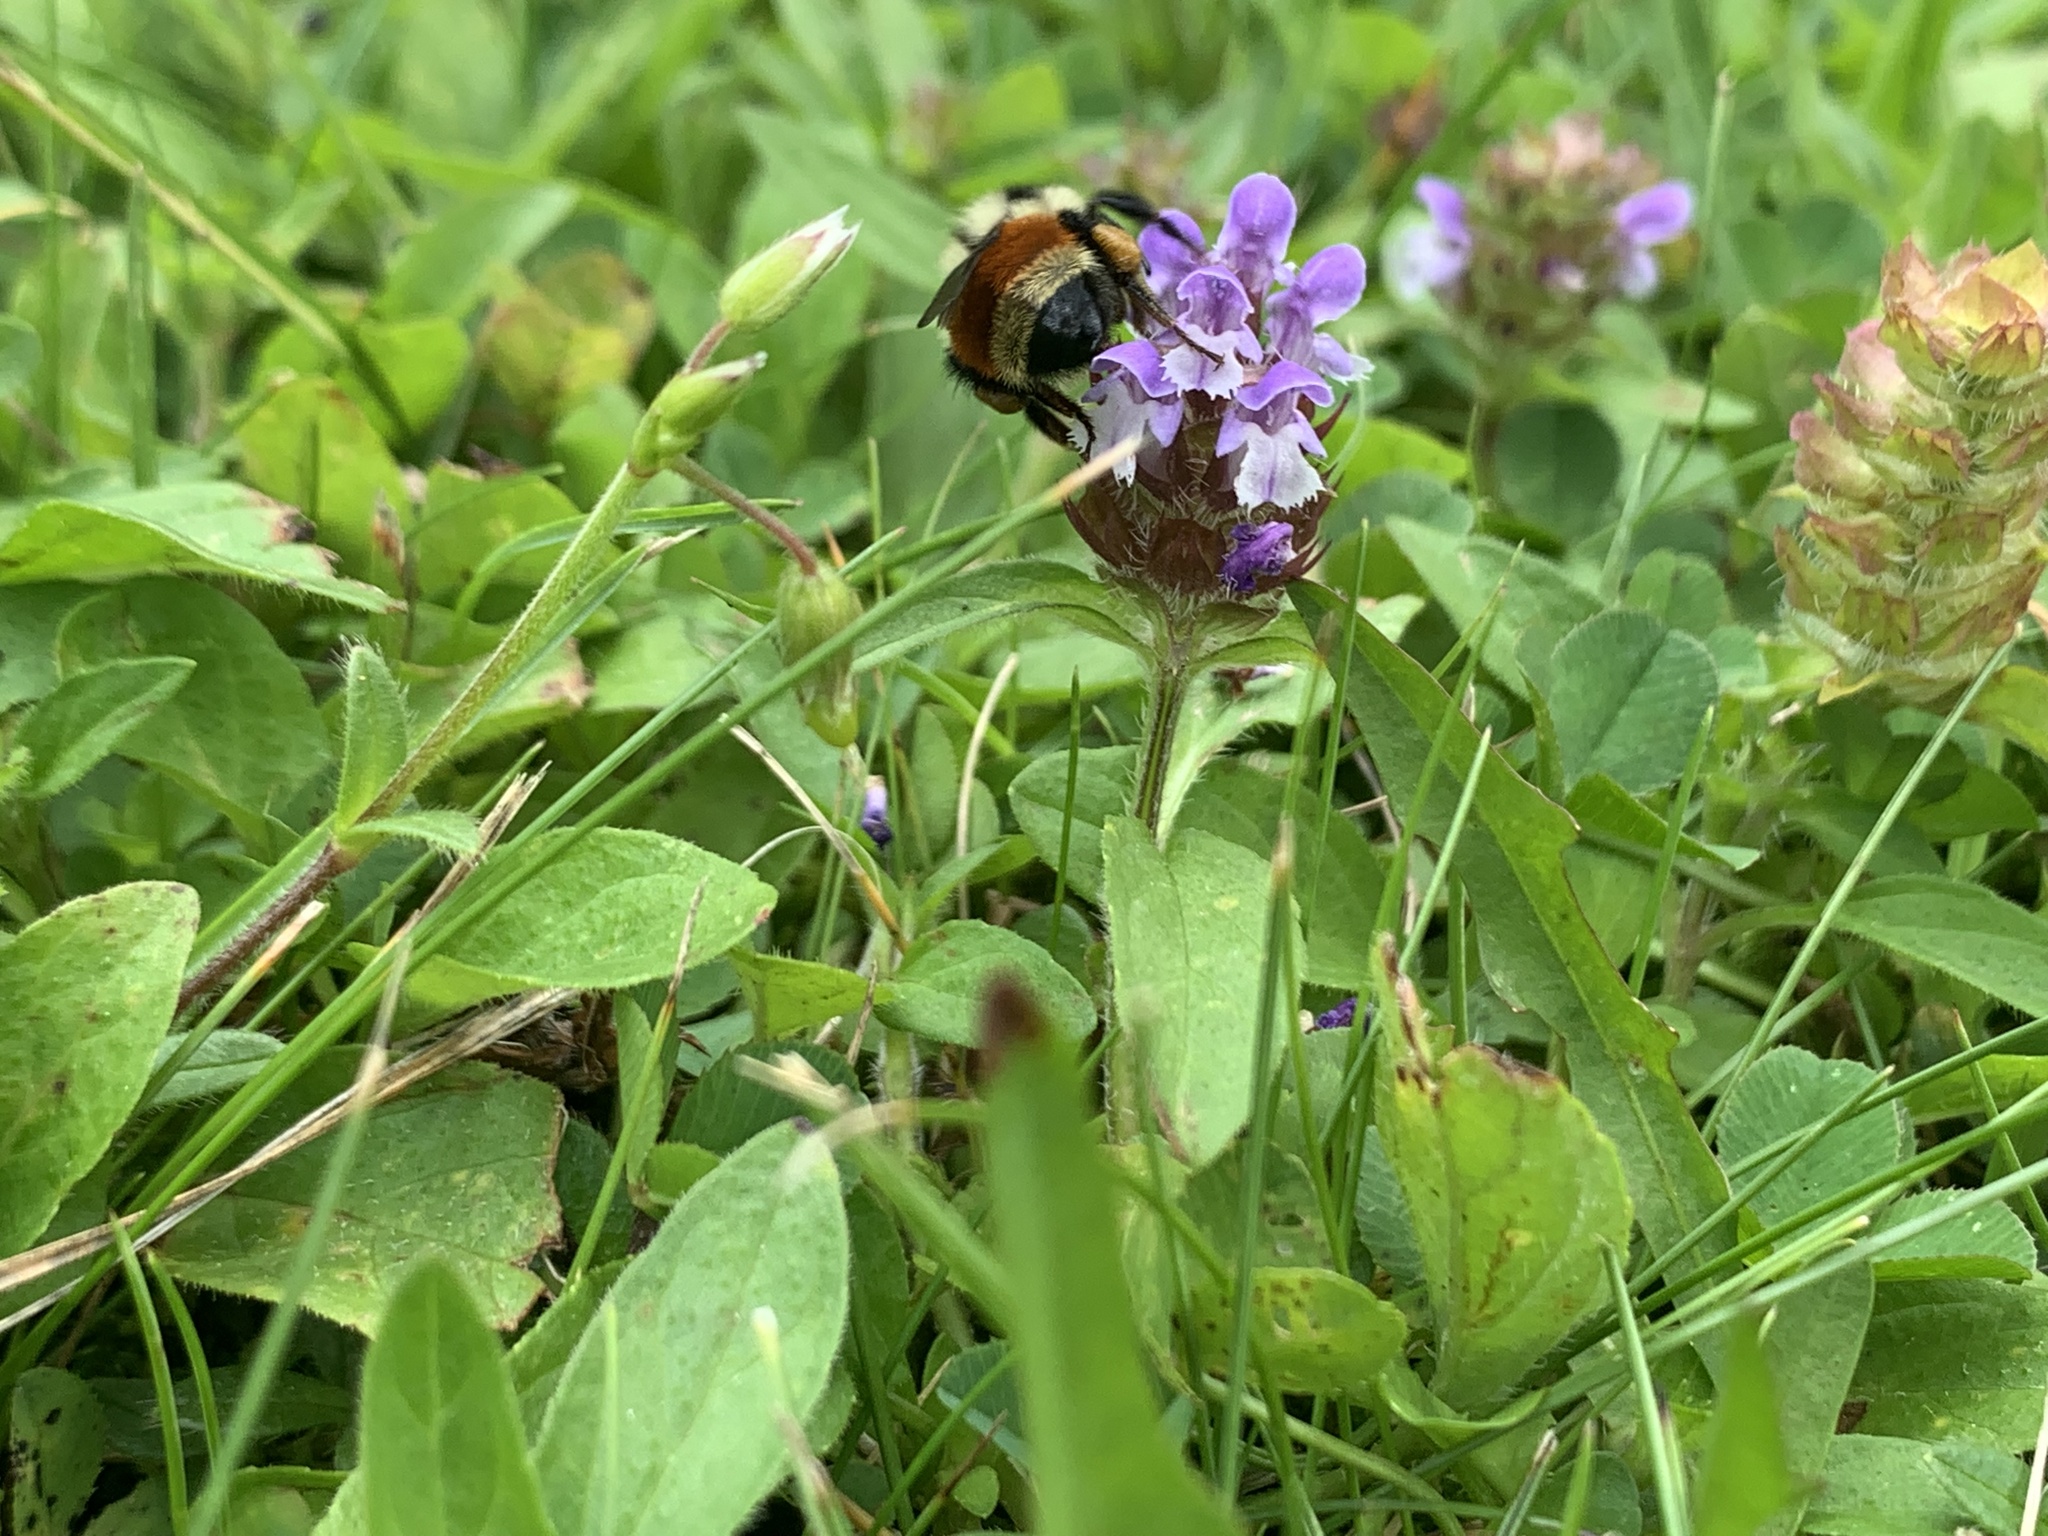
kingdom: Animalia
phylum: Arthropoda
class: Insecta
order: Hymenoptera
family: Apidae
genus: Bombus
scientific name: Bombus ternarius
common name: Tri-colored bumble bee
